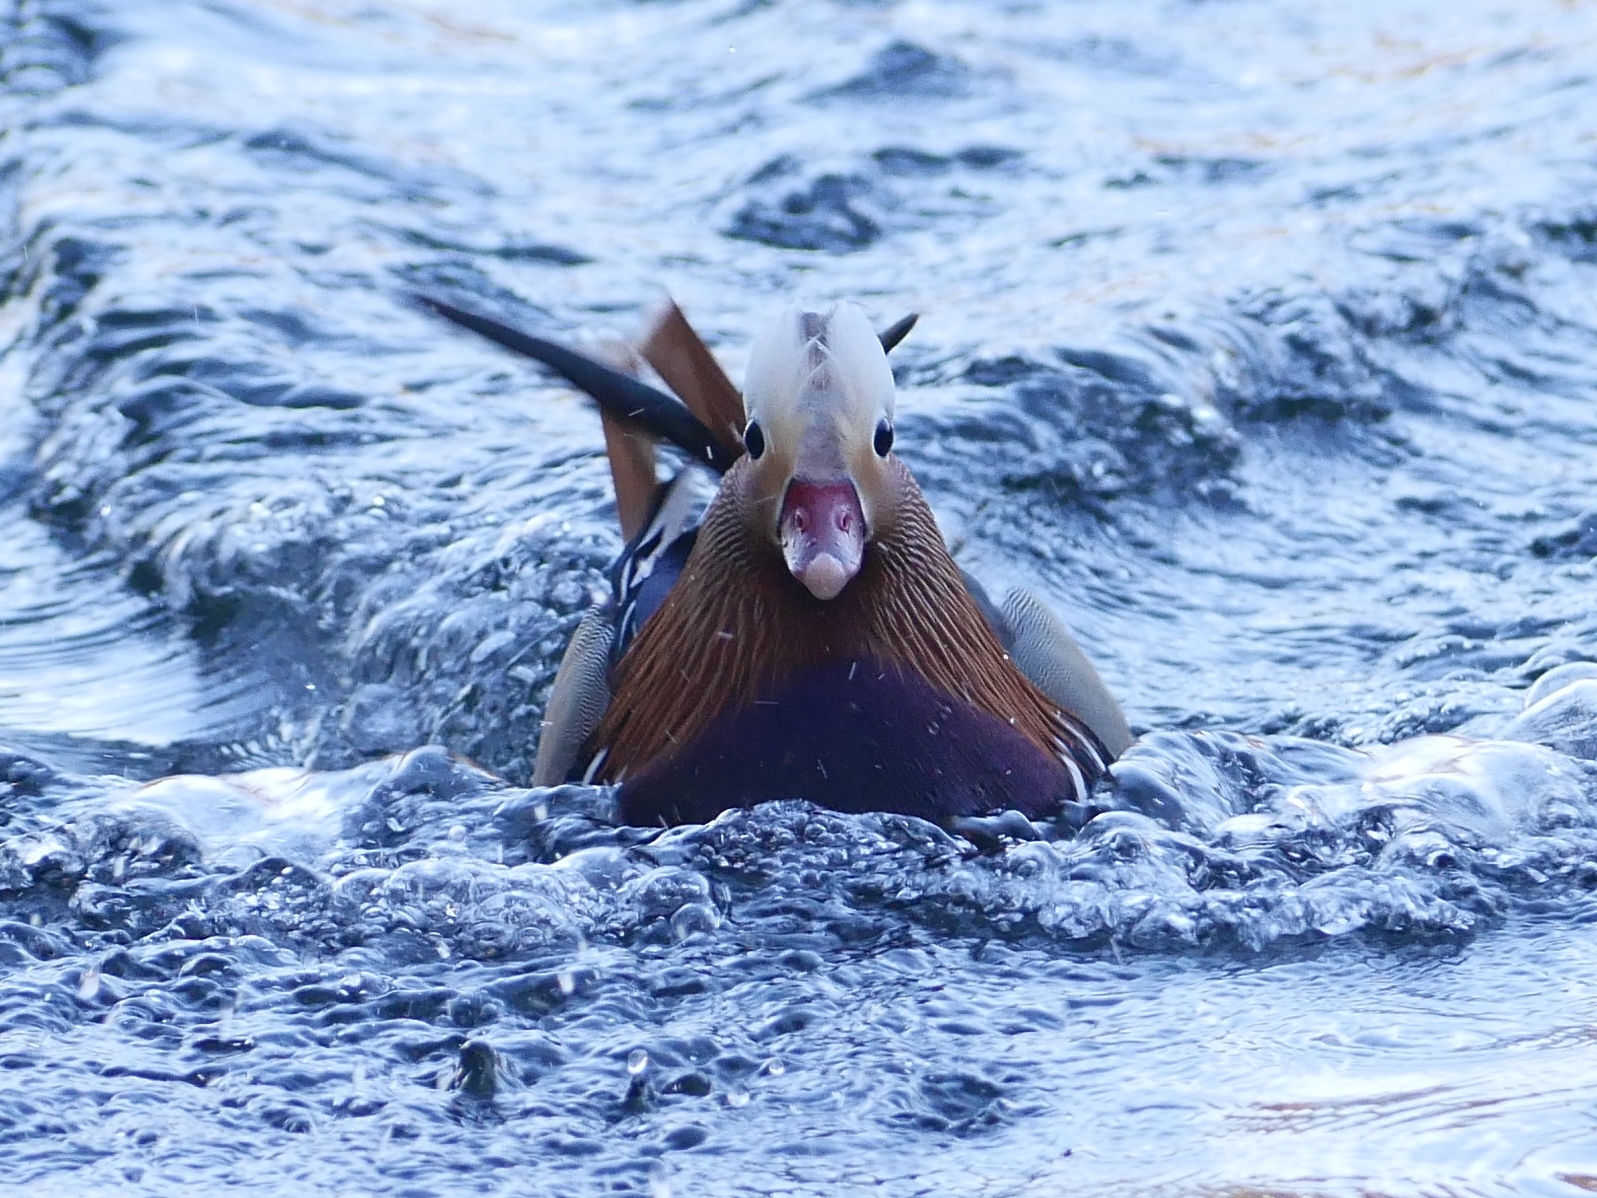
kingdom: Animalia
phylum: Chordata
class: Aves
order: Anseriformes
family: Anatidae
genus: Aix
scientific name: Aix galericulata
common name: Mandarin duck
